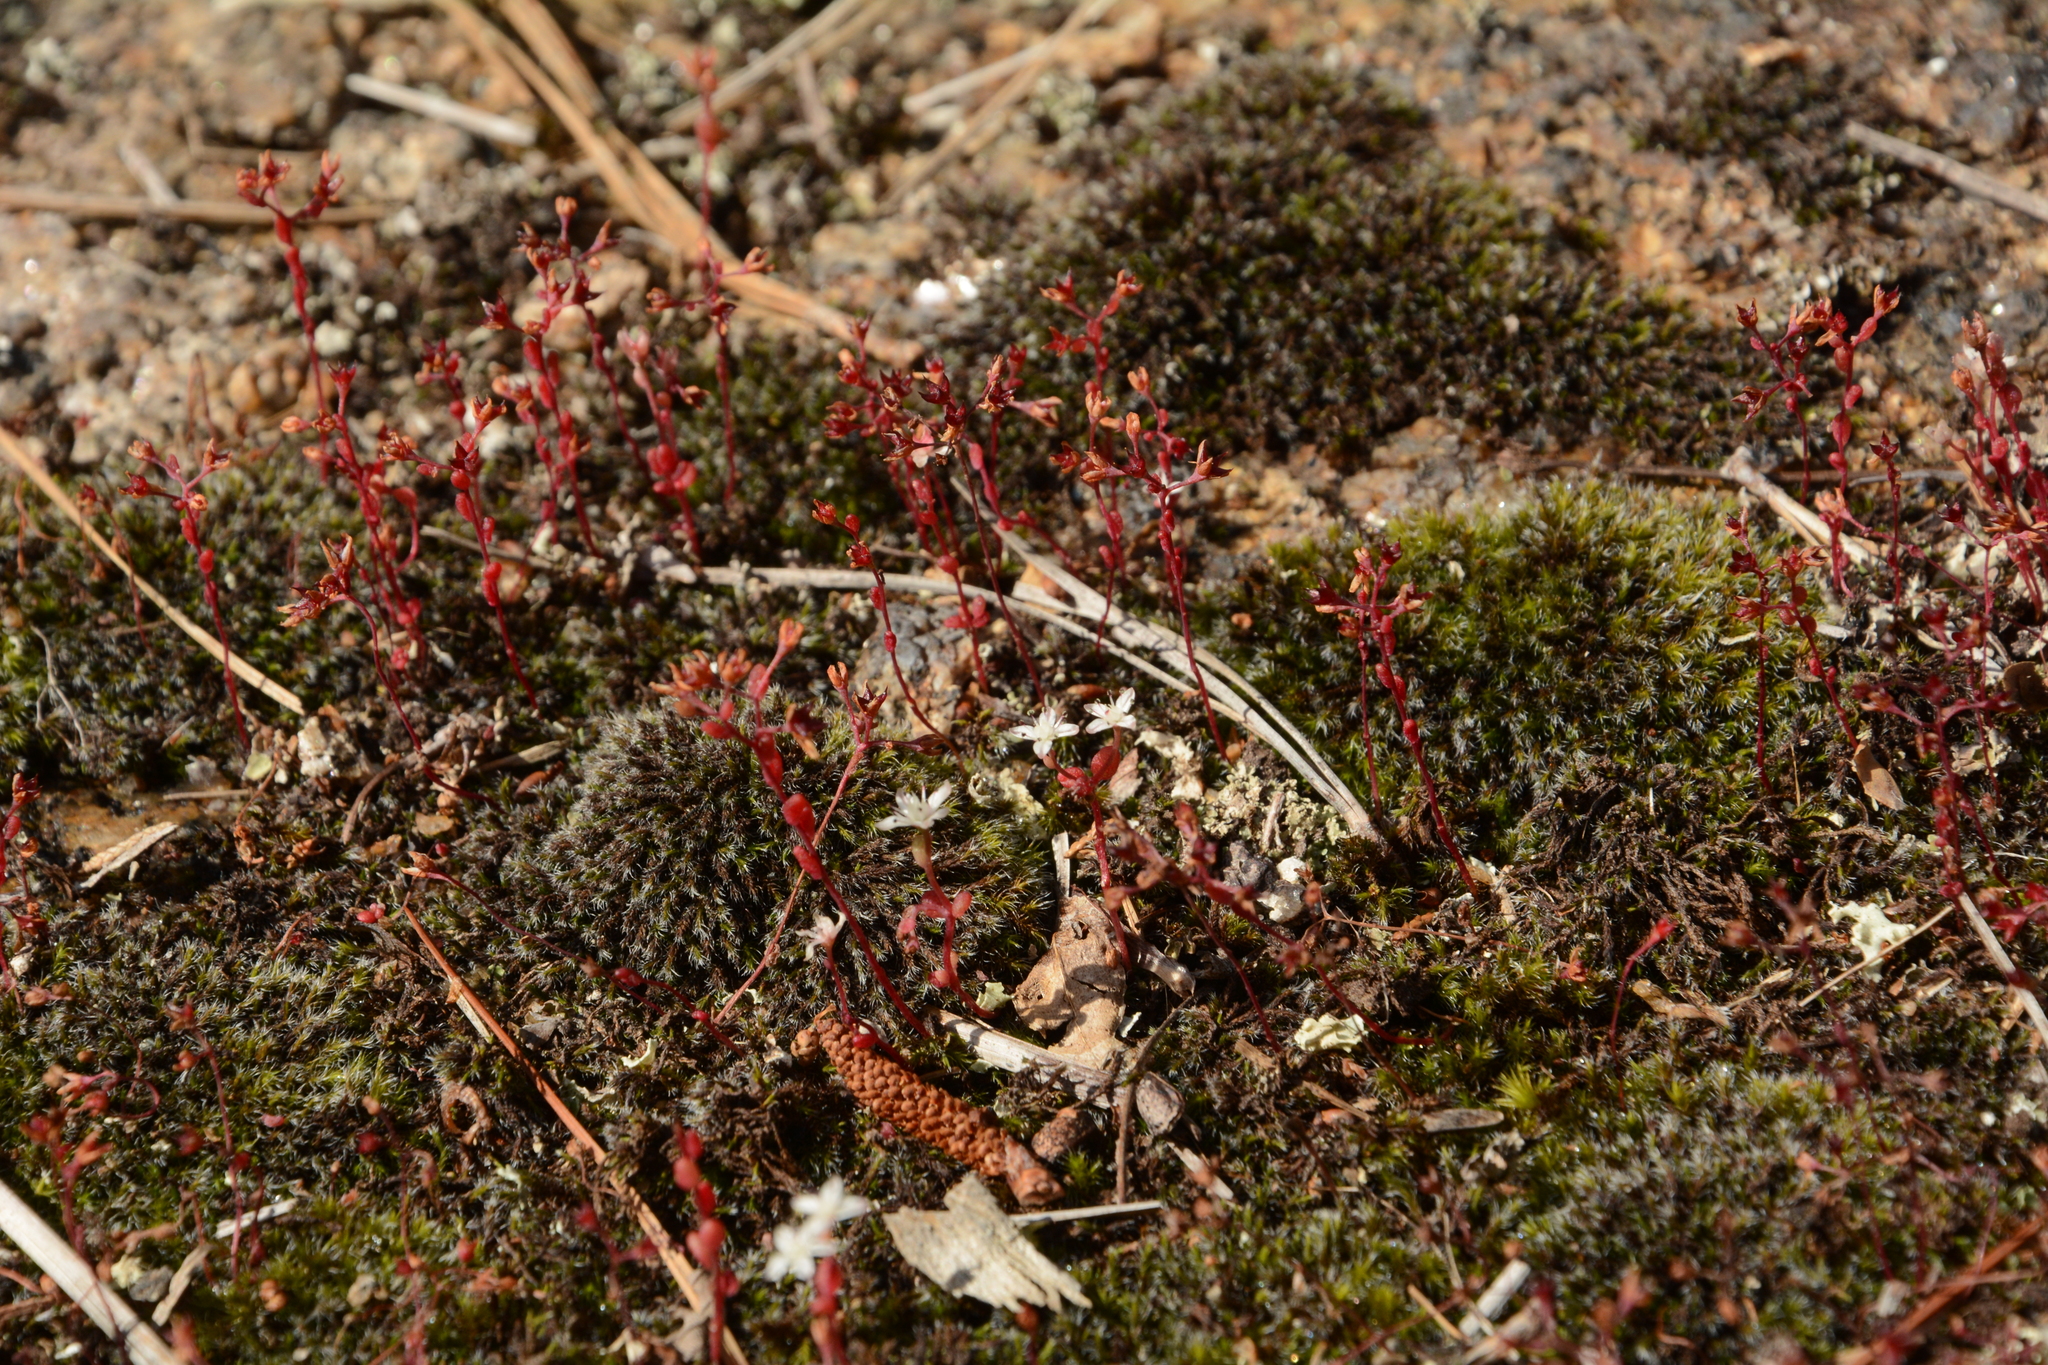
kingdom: Plantae
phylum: Tracheophyta
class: Magnoliopsida
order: Saxifragales
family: Crassulaceae
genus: Sedum
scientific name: Sedum smallii
